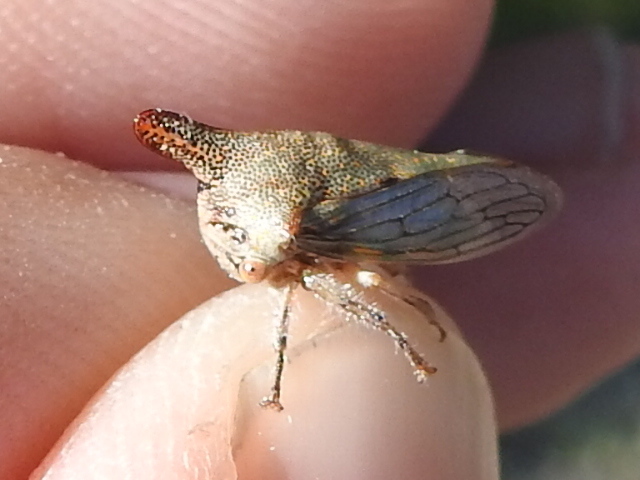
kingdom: Animalia
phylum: Arthropoda
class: Insecta
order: Hemiptera
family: Membracidae
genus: Platycotis
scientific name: Platycotis vittatus
